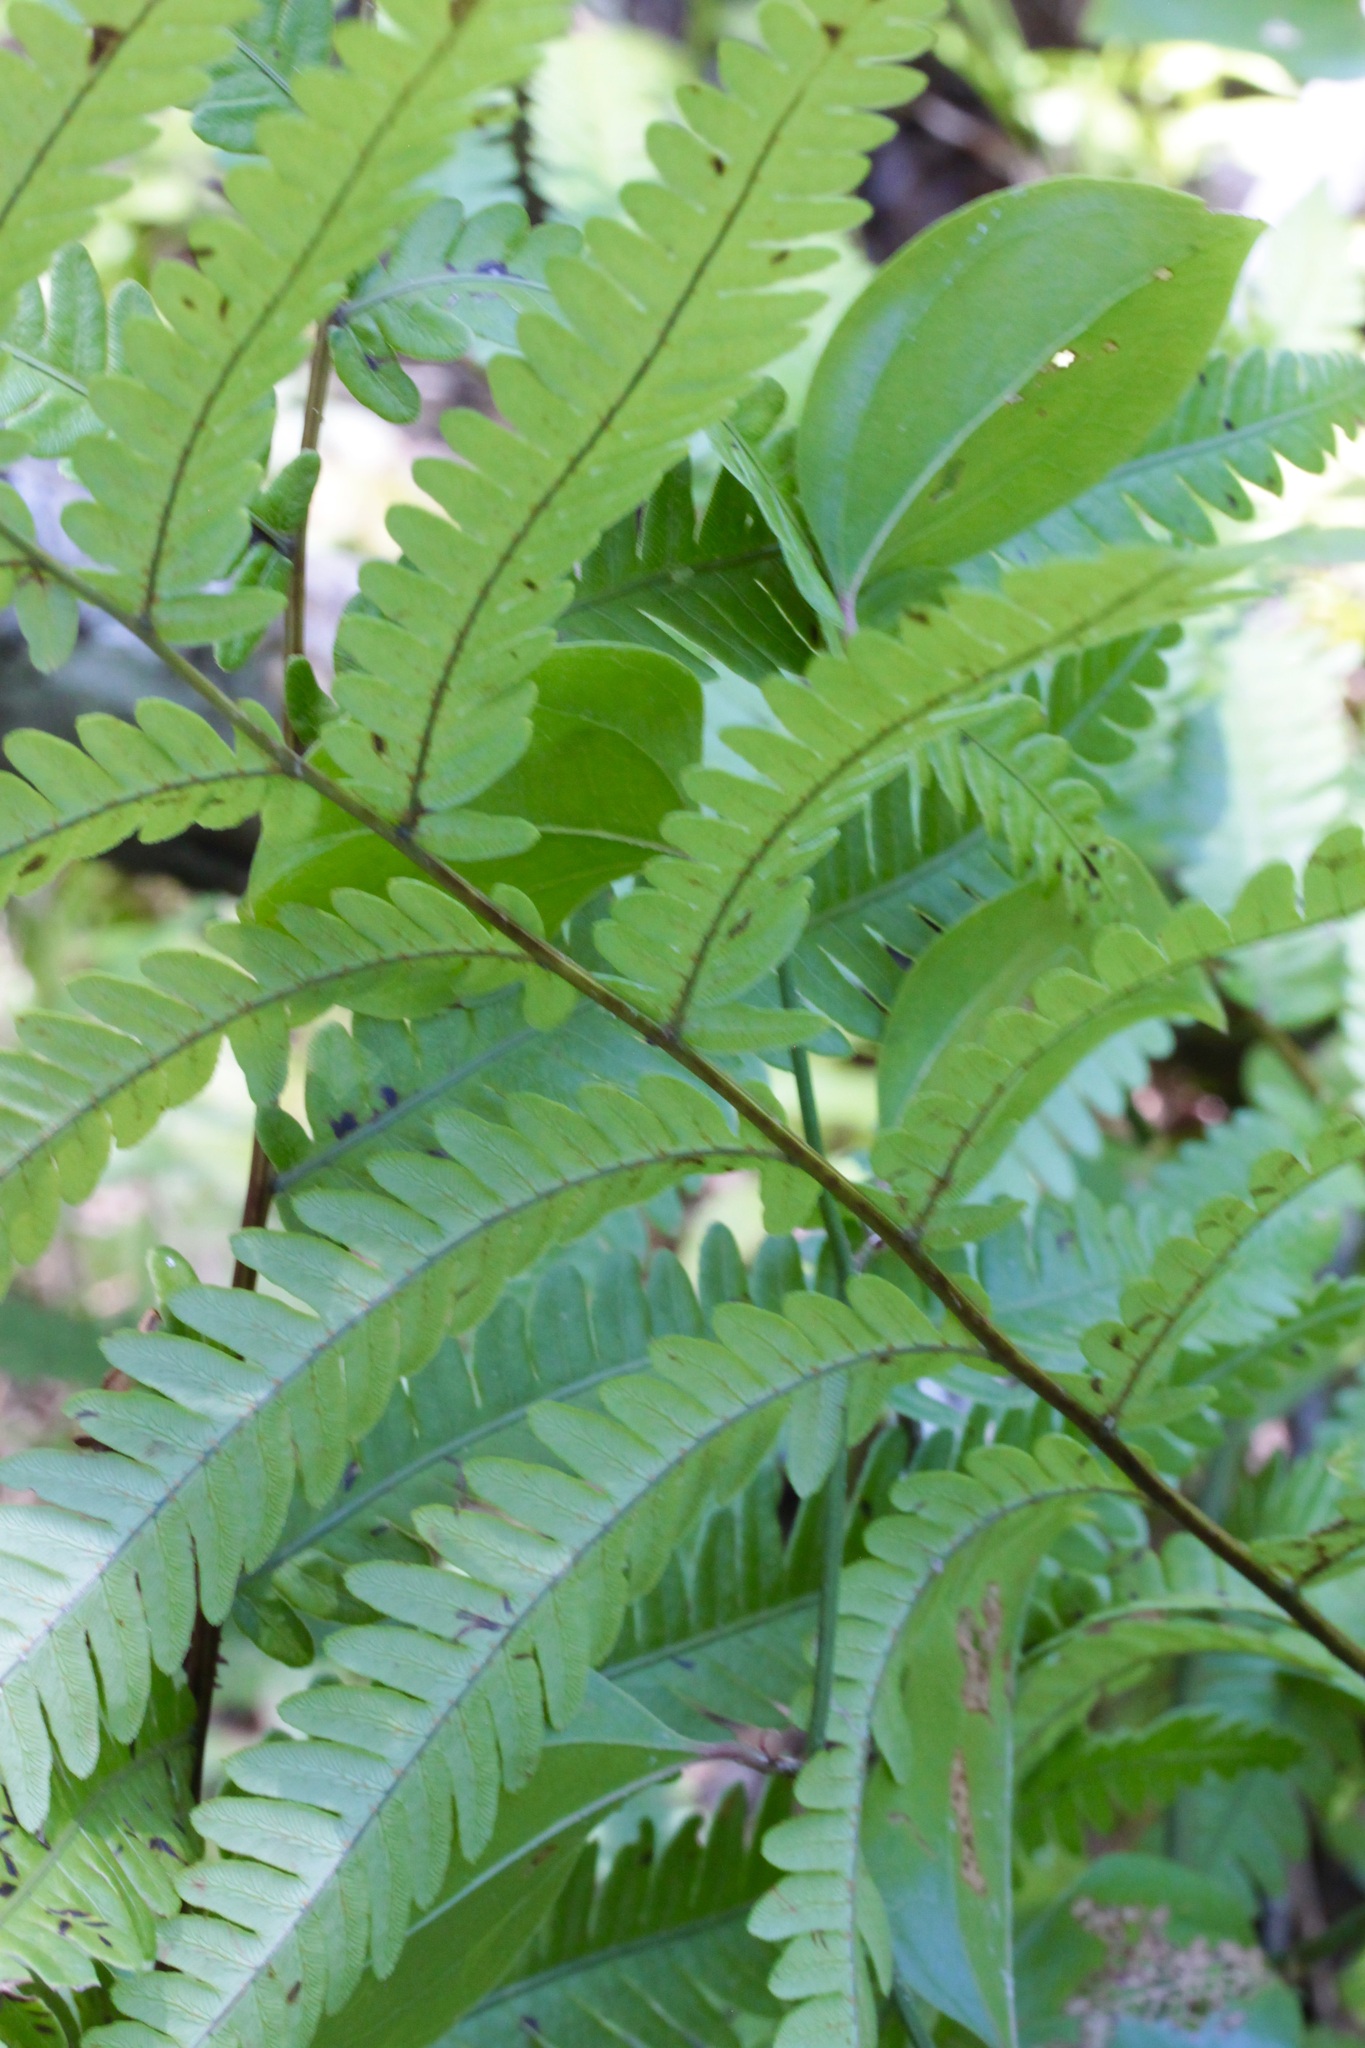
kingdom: Plantae
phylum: Tracheophyta
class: Polypodiopsida
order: Polypodiales
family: Blechnaceae
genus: Anchistea
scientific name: Anchistea virginica
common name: Virginia chain fern
